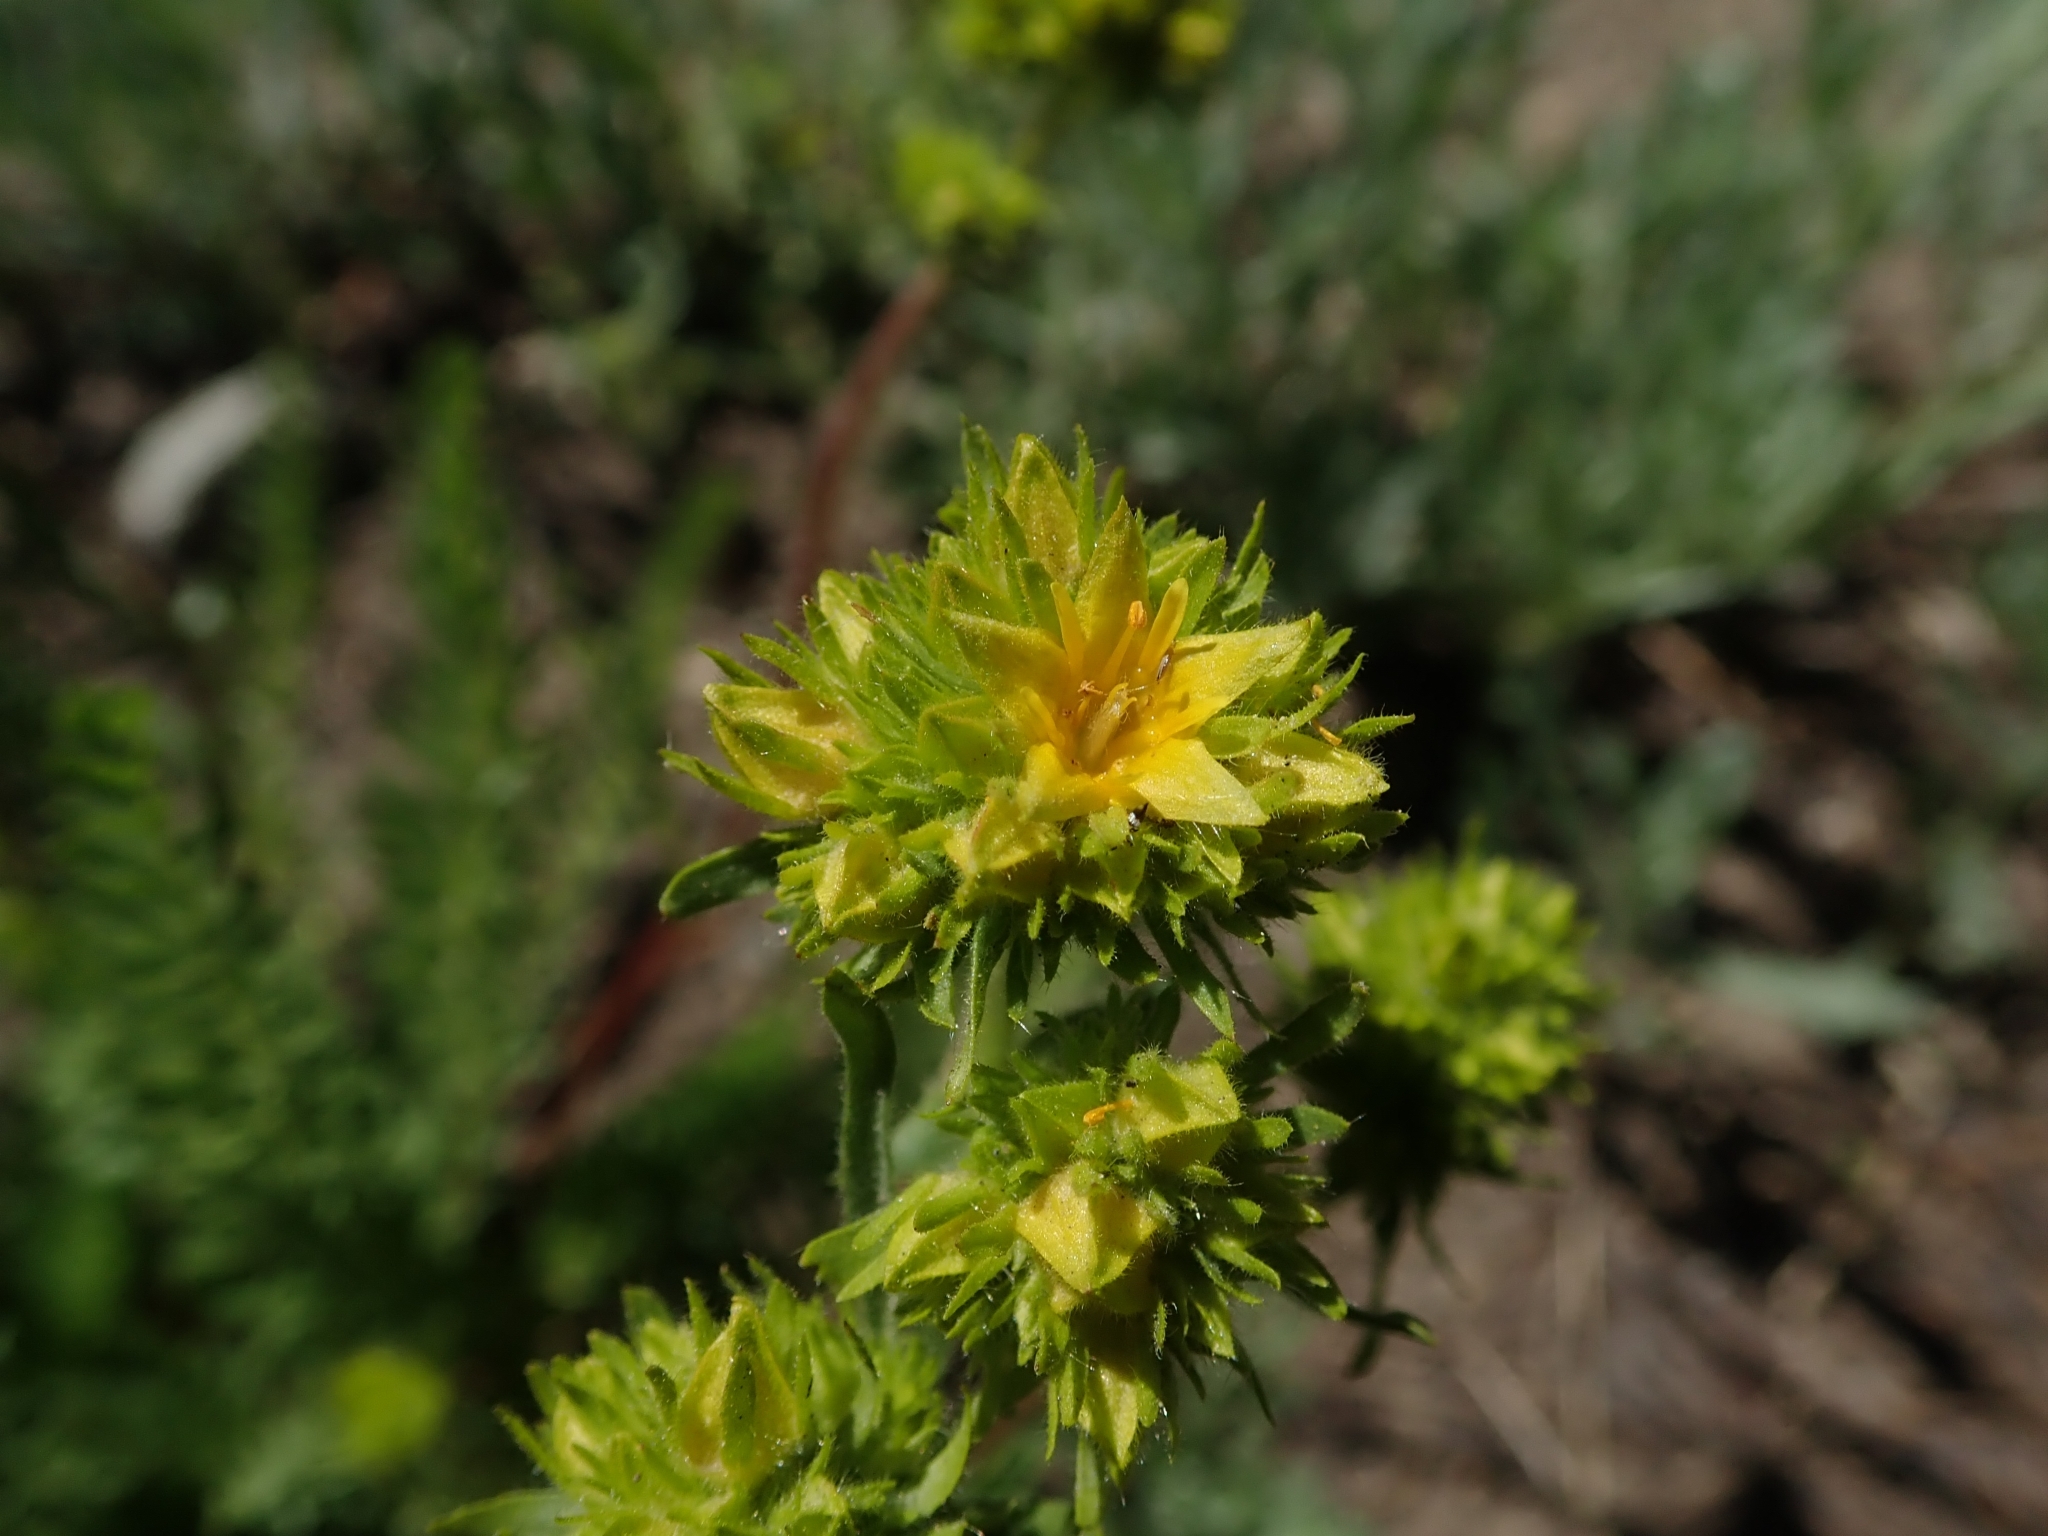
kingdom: Plantae
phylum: Tracheophyta
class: Magnoliopsida
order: Rosales
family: Rosaceae
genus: Potentilla
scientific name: Potentilla gordonii
